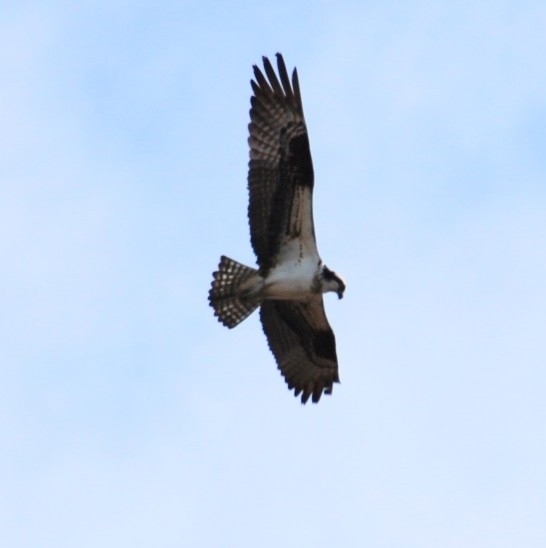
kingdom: Animalia
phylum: Chordata
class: Aves
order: Accipitriformes
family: Pandionidae
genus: Pandion
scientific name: Pandion haliaetus
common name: Osprey
